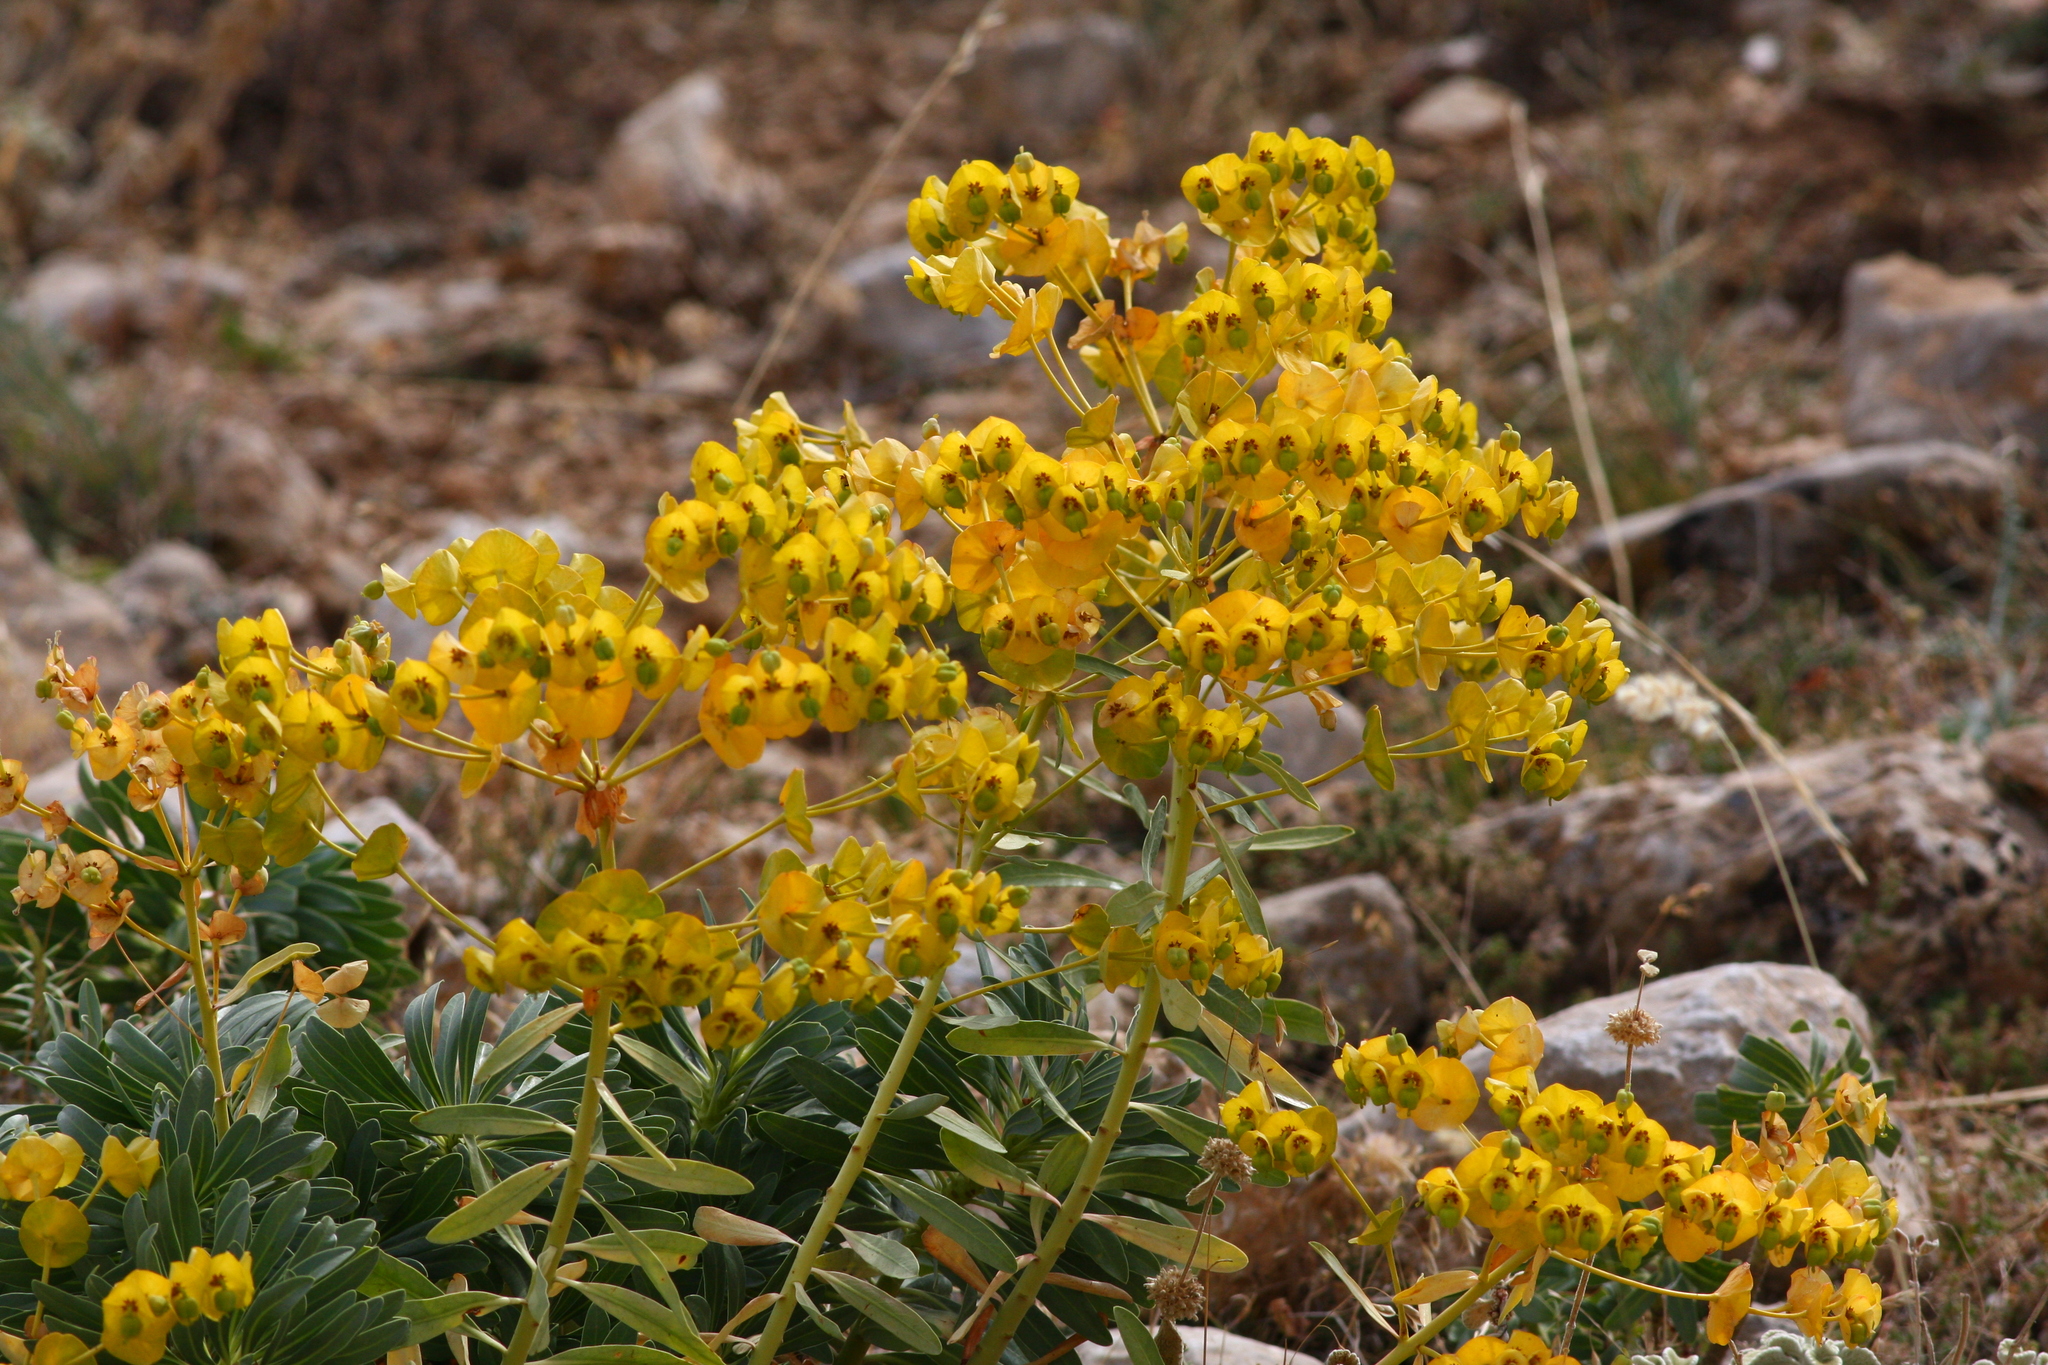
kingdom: Plantae
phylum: Tracheophyta
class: Magnoliopsida
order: Malpighiales
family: Euphorbiaceae
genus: Euphorbia
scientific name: Euphorbia kotschyana
